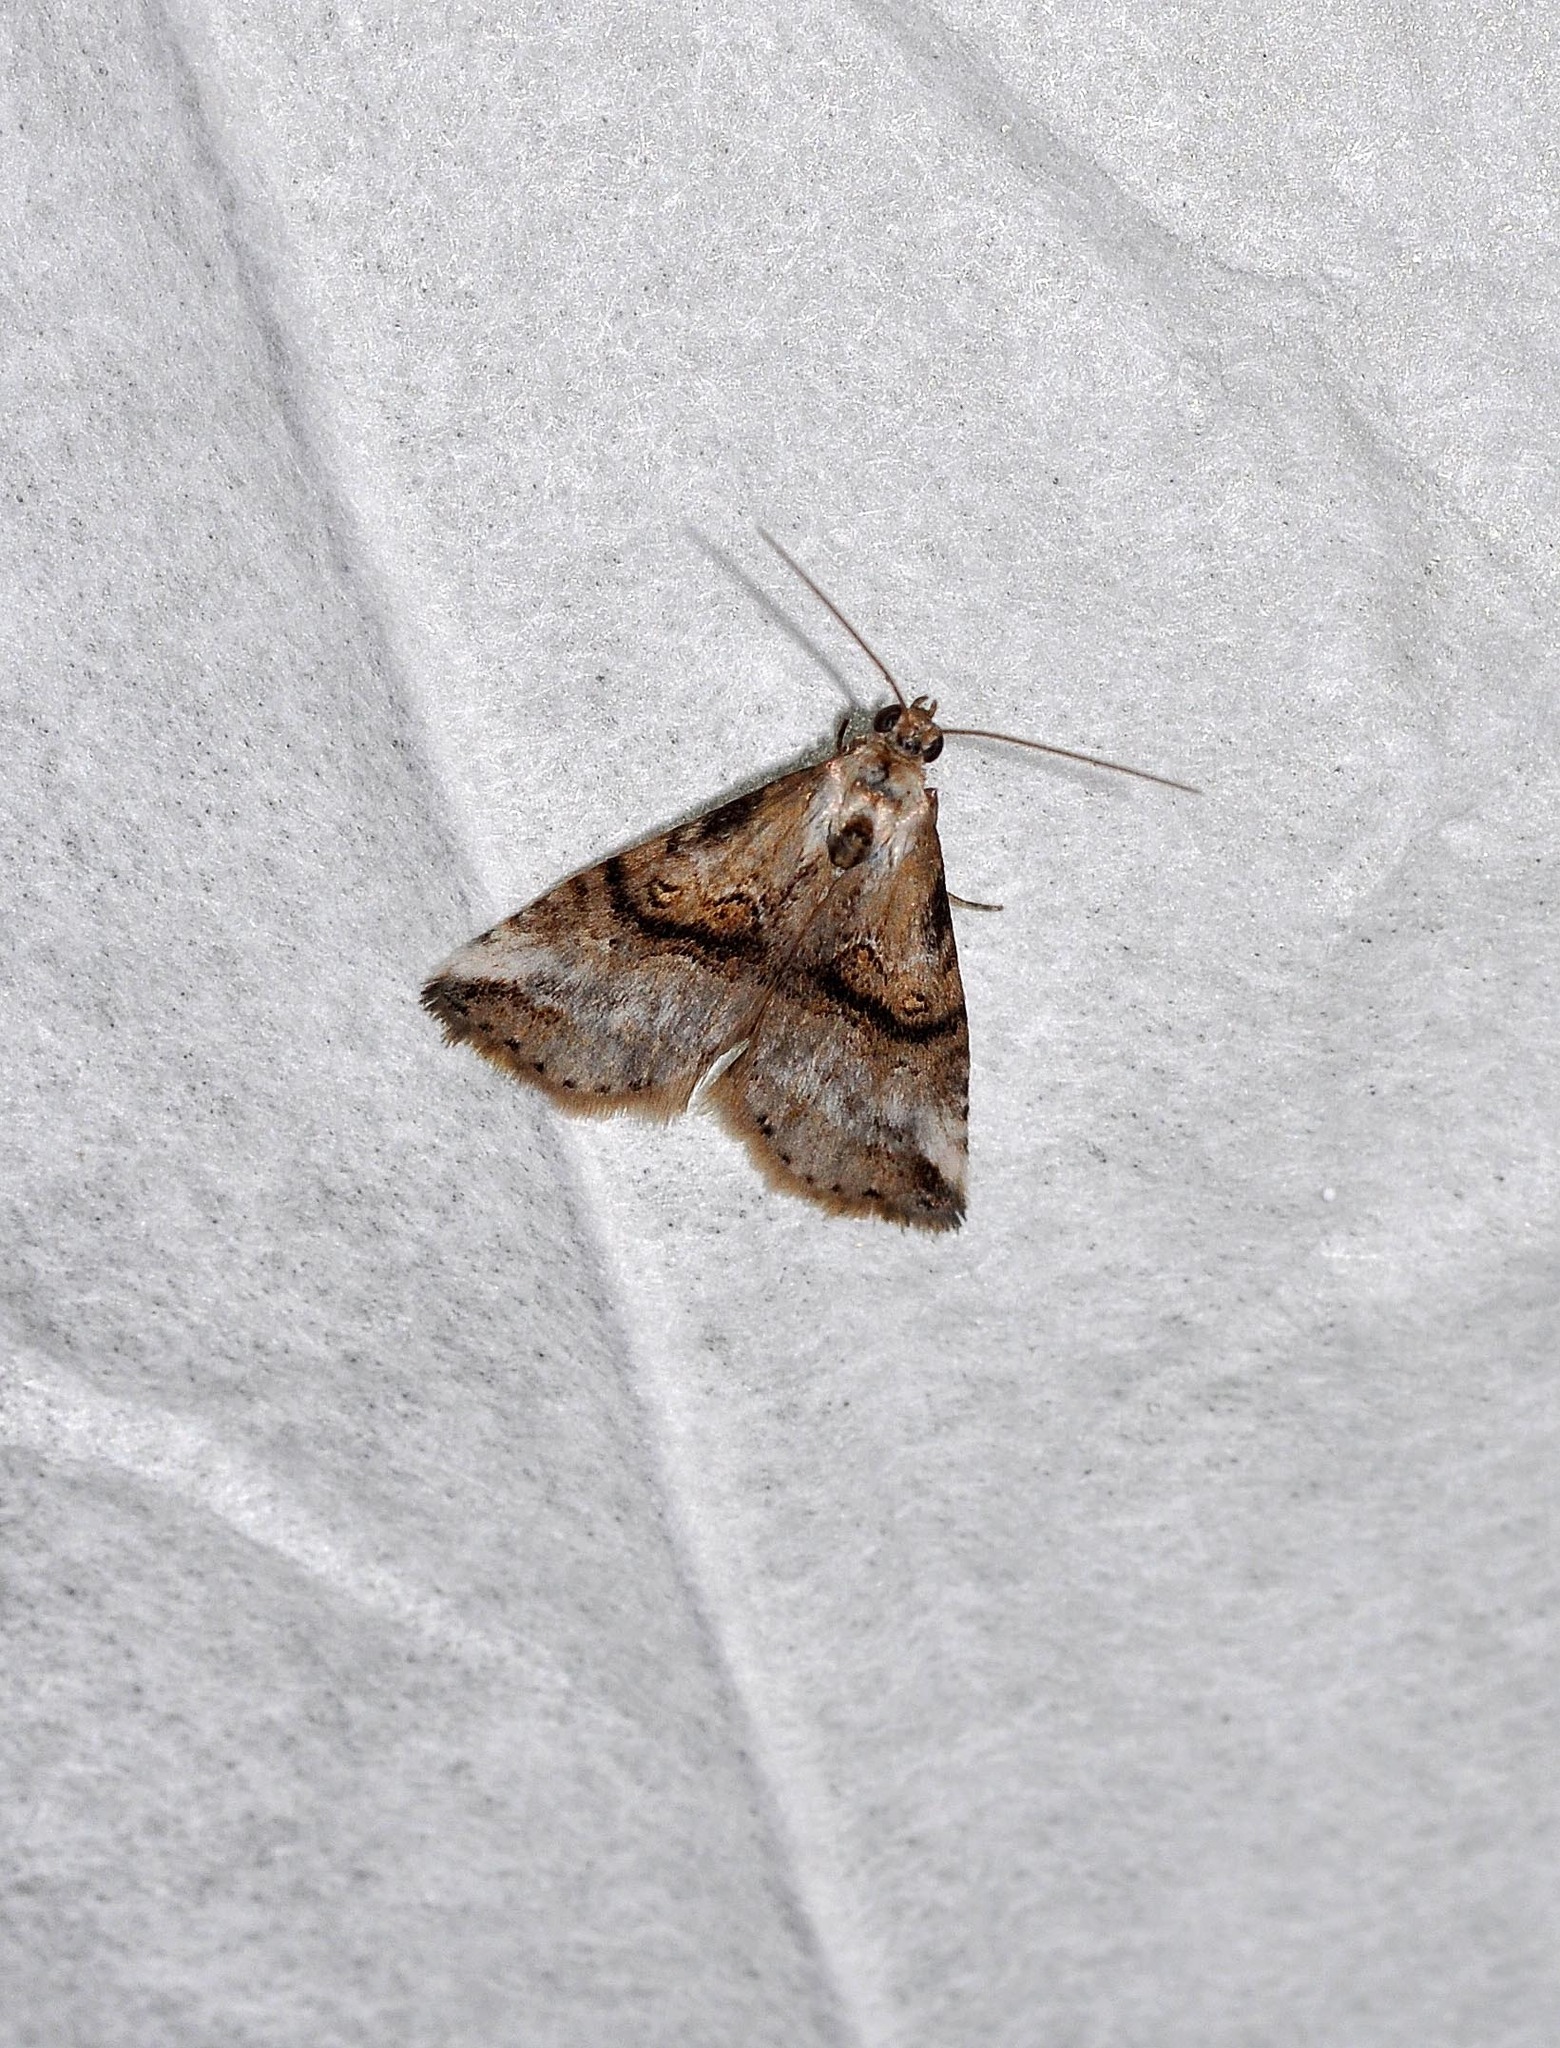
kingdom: Animalia
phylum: Arthropoda
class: Insecta
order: Lepidoptera
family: Erebidae
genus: Zebeeba
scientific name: Zebeeba falsalis
